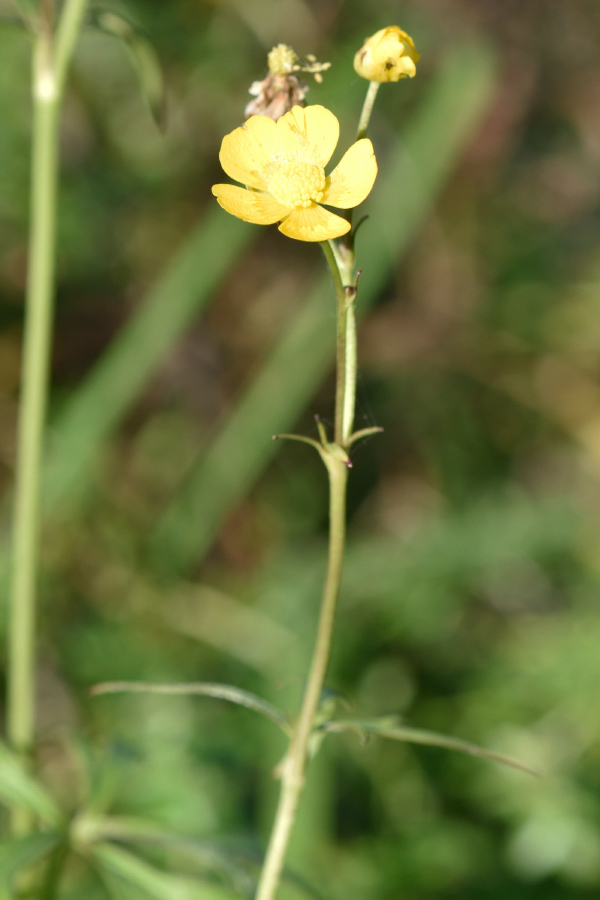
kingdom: Plantae
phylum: Tracheophyta
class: Magnoliopsida
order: Ranunculales
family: Ranunculaceae
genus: Ranunculus
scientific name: Ranunculus acris
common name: Meadow buttercup
